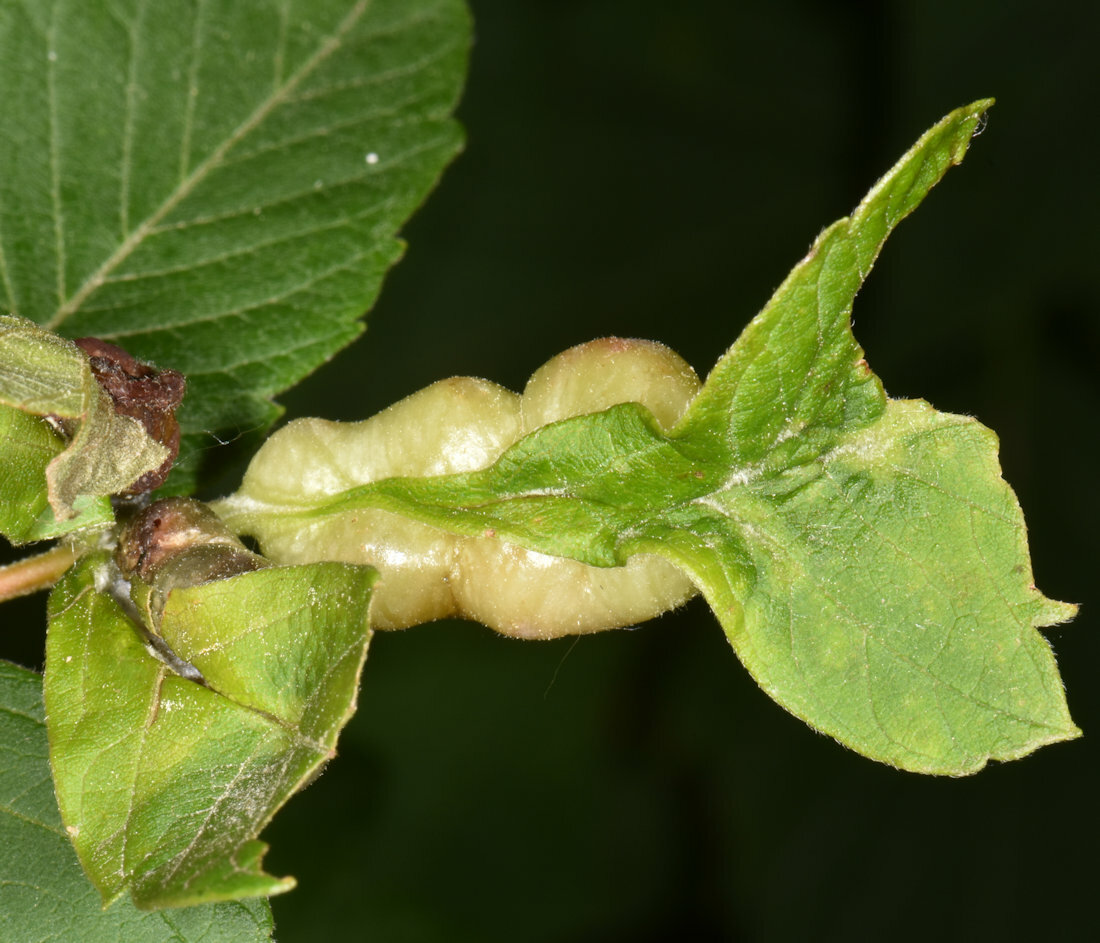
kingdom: Animalia
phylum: Arthropoda
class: Insecta
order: Diptera
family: Cecidomyiidae
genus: Contarinia
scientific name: Contarinia negundinis
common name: Boxelder budgall midge
